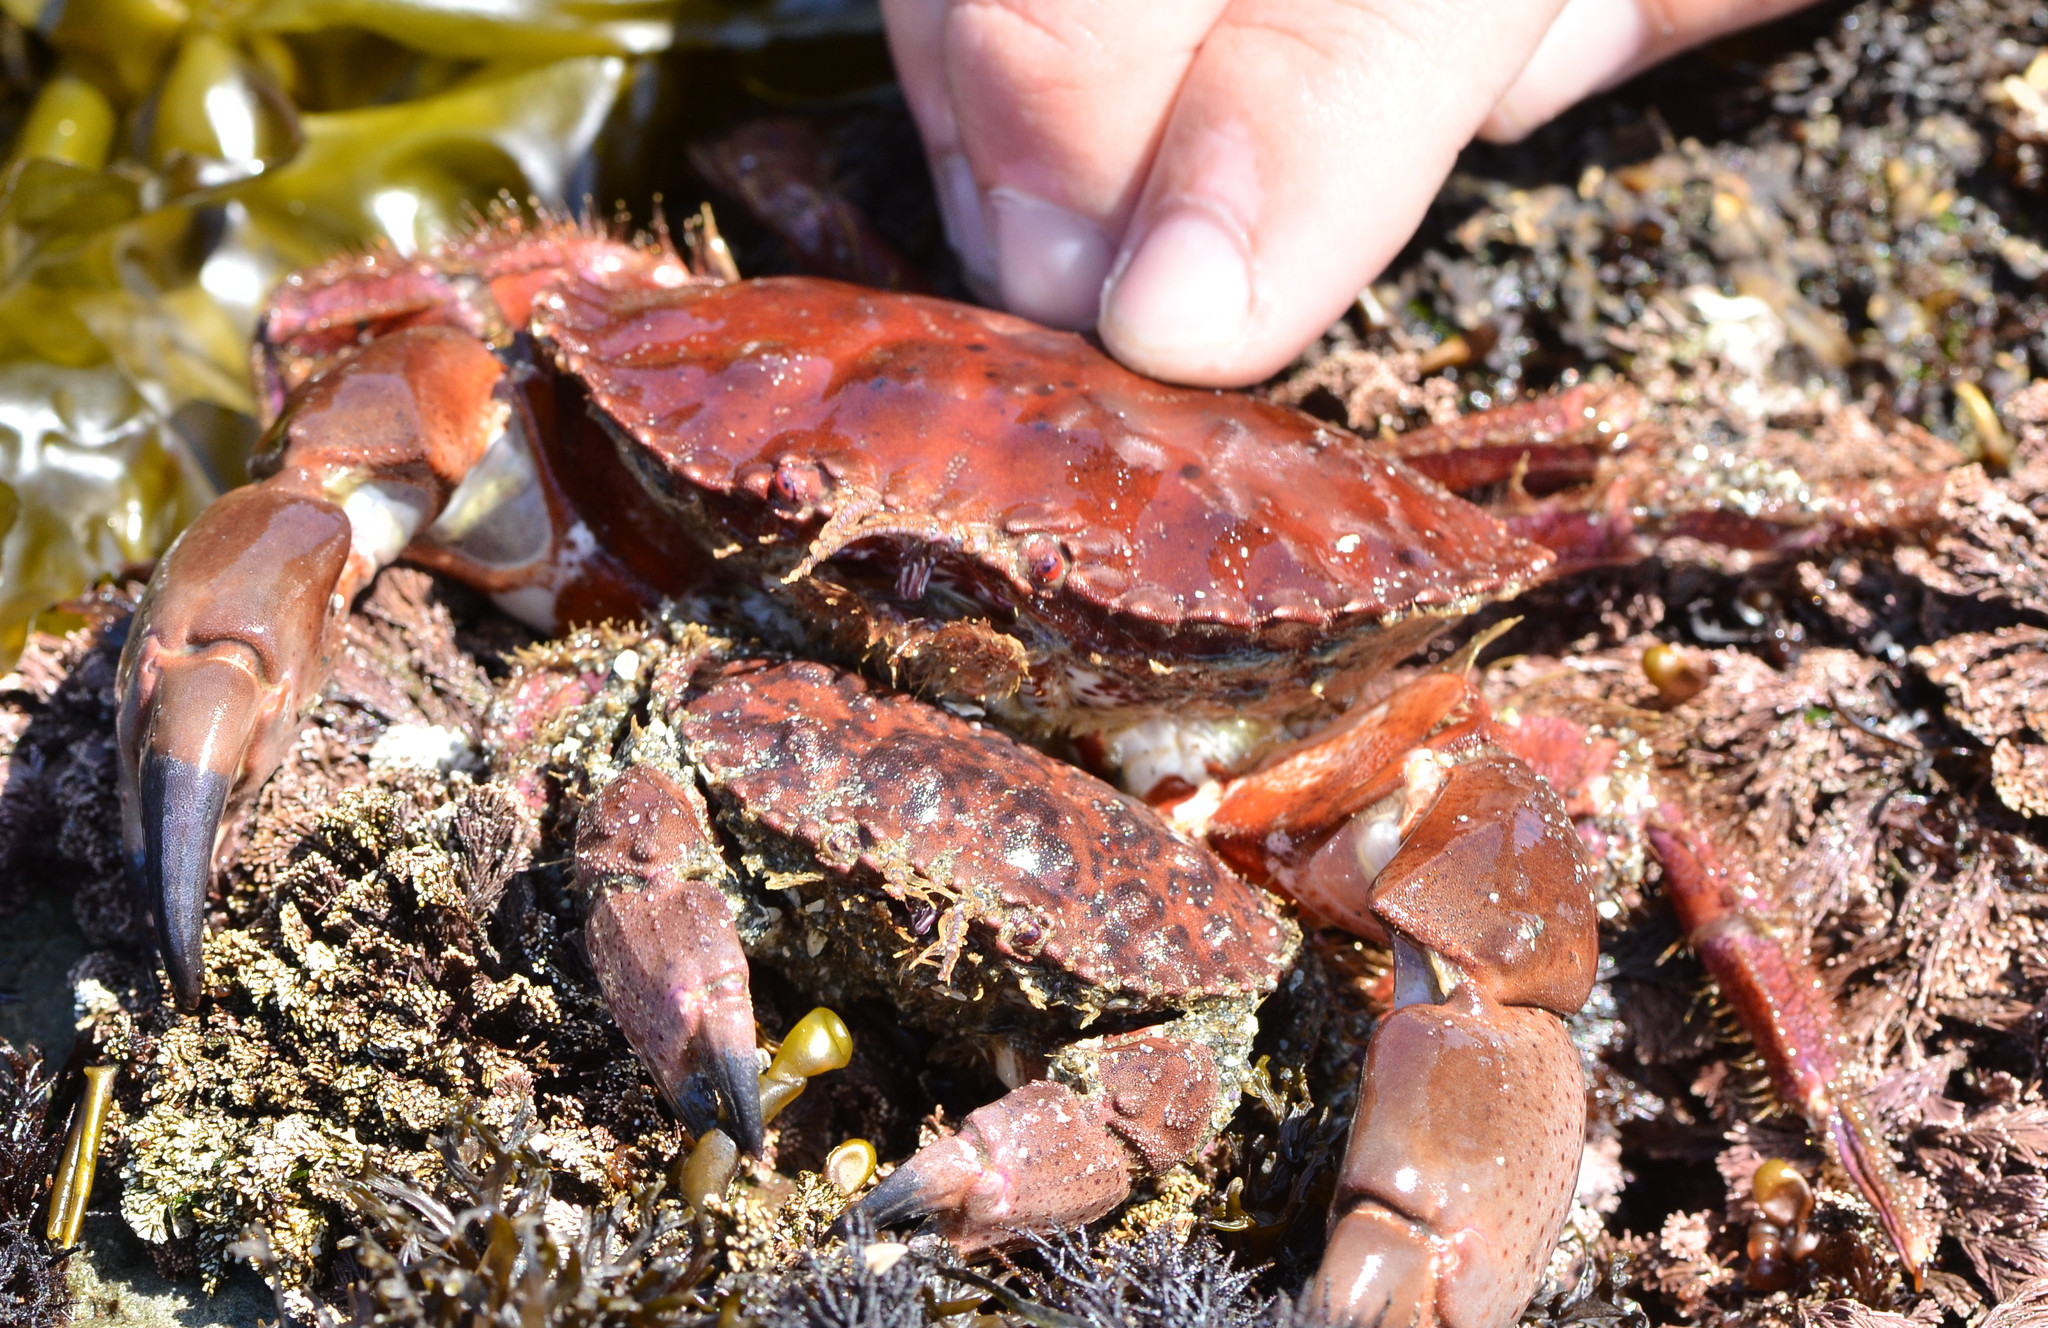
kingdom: Animalia
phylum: Arthropoda
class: Malacostraca
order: Decapoda
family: Cancridae
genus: Romaleon
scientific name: Romaleon antennarium
